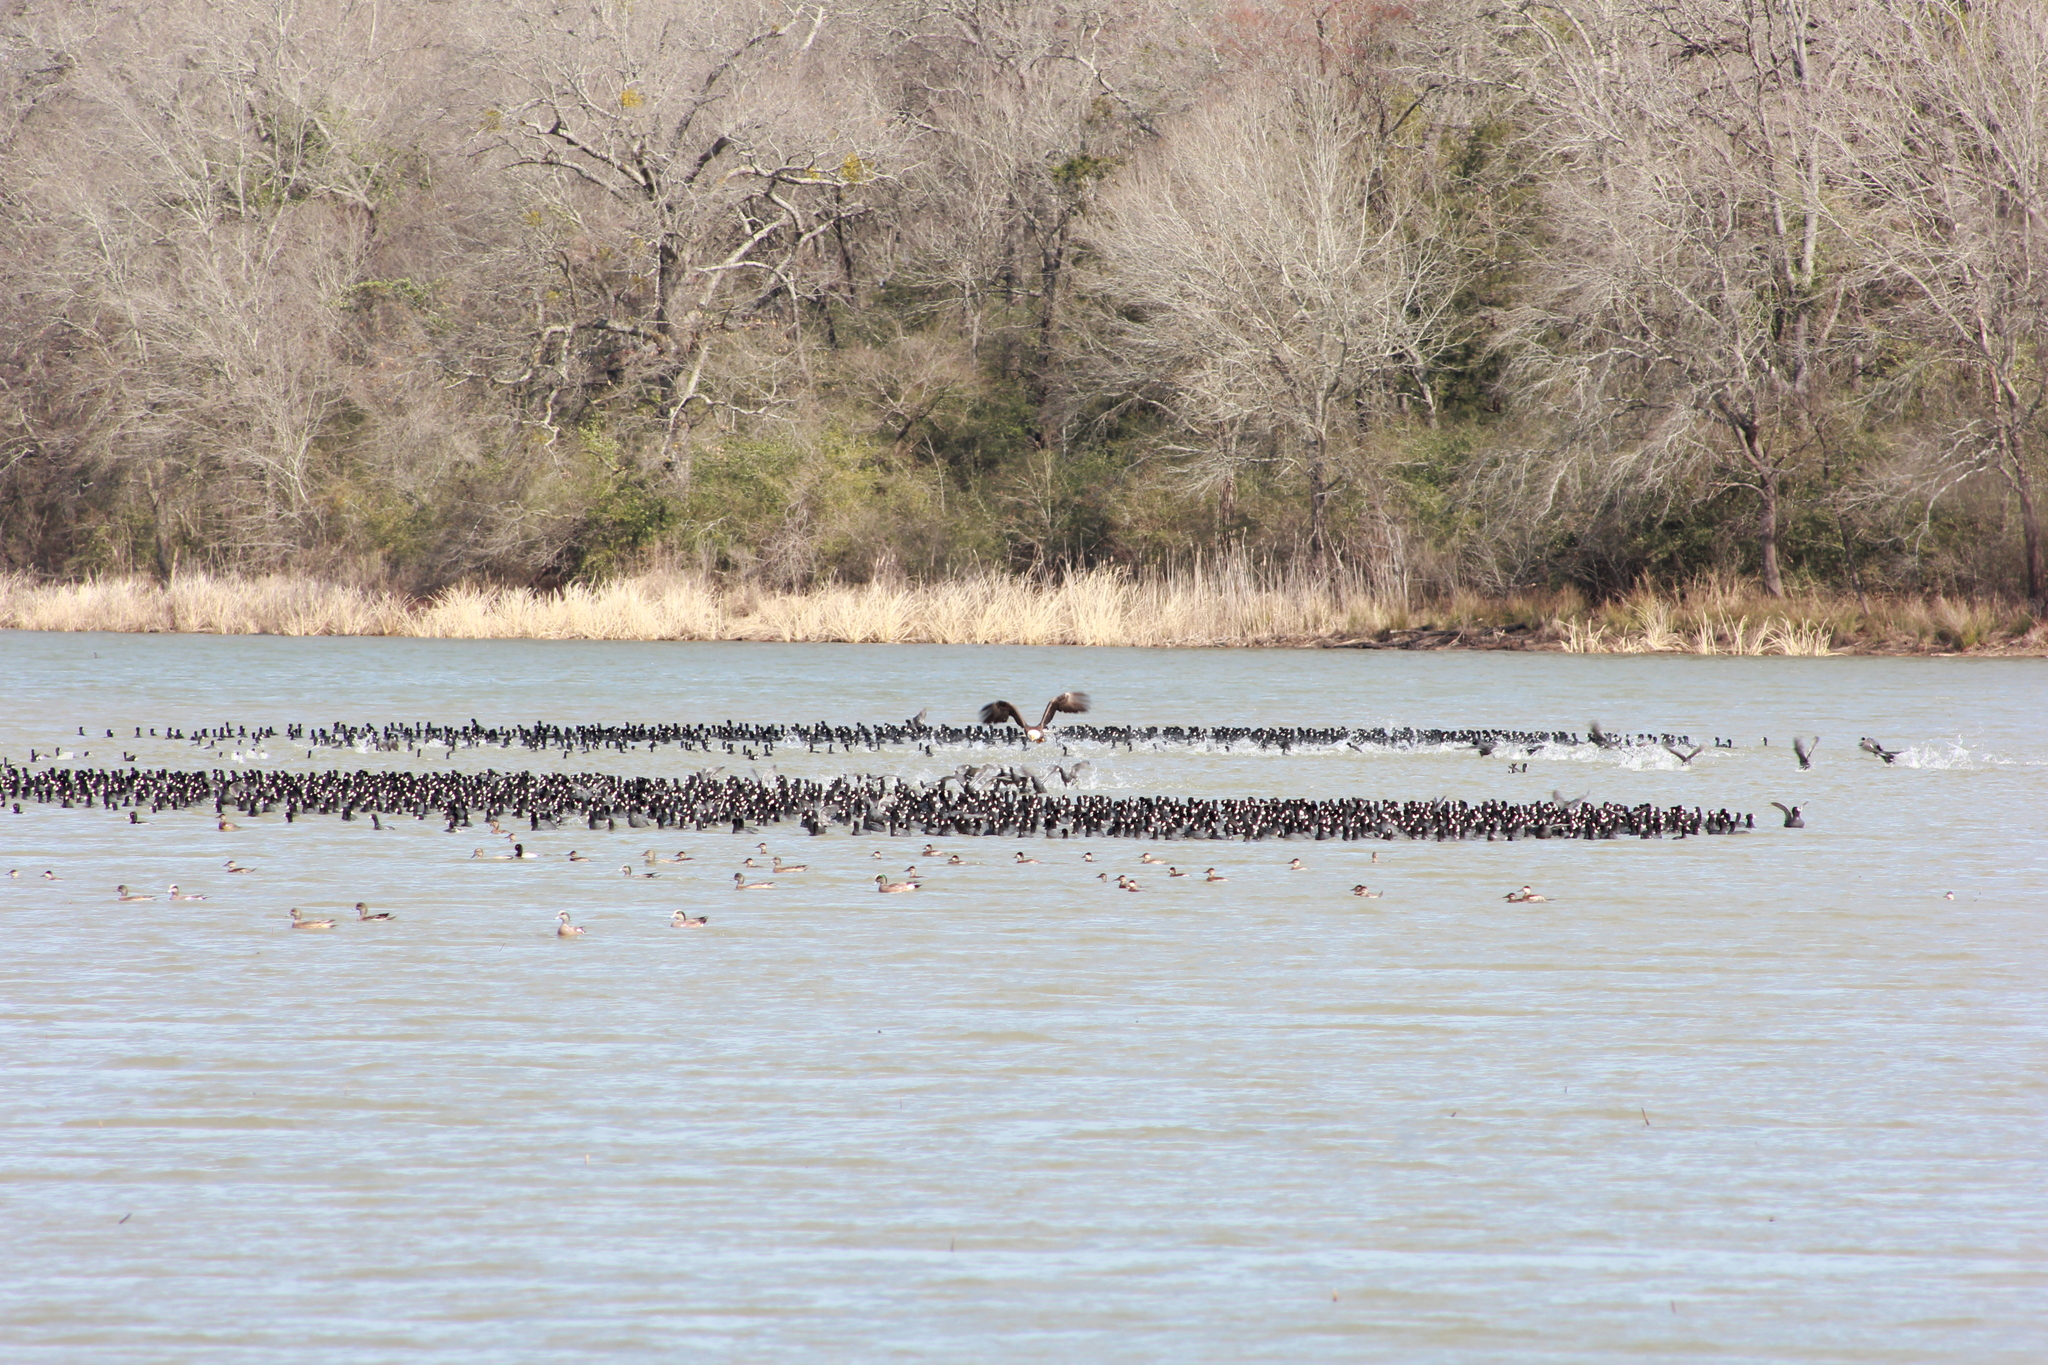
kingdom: Animalia
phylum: Chordata
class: Aves
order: Accipitriformes
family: Accipitridae
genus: Haliaeetus
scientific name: Haliaeetus leucocephalus
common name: Bald eagle
